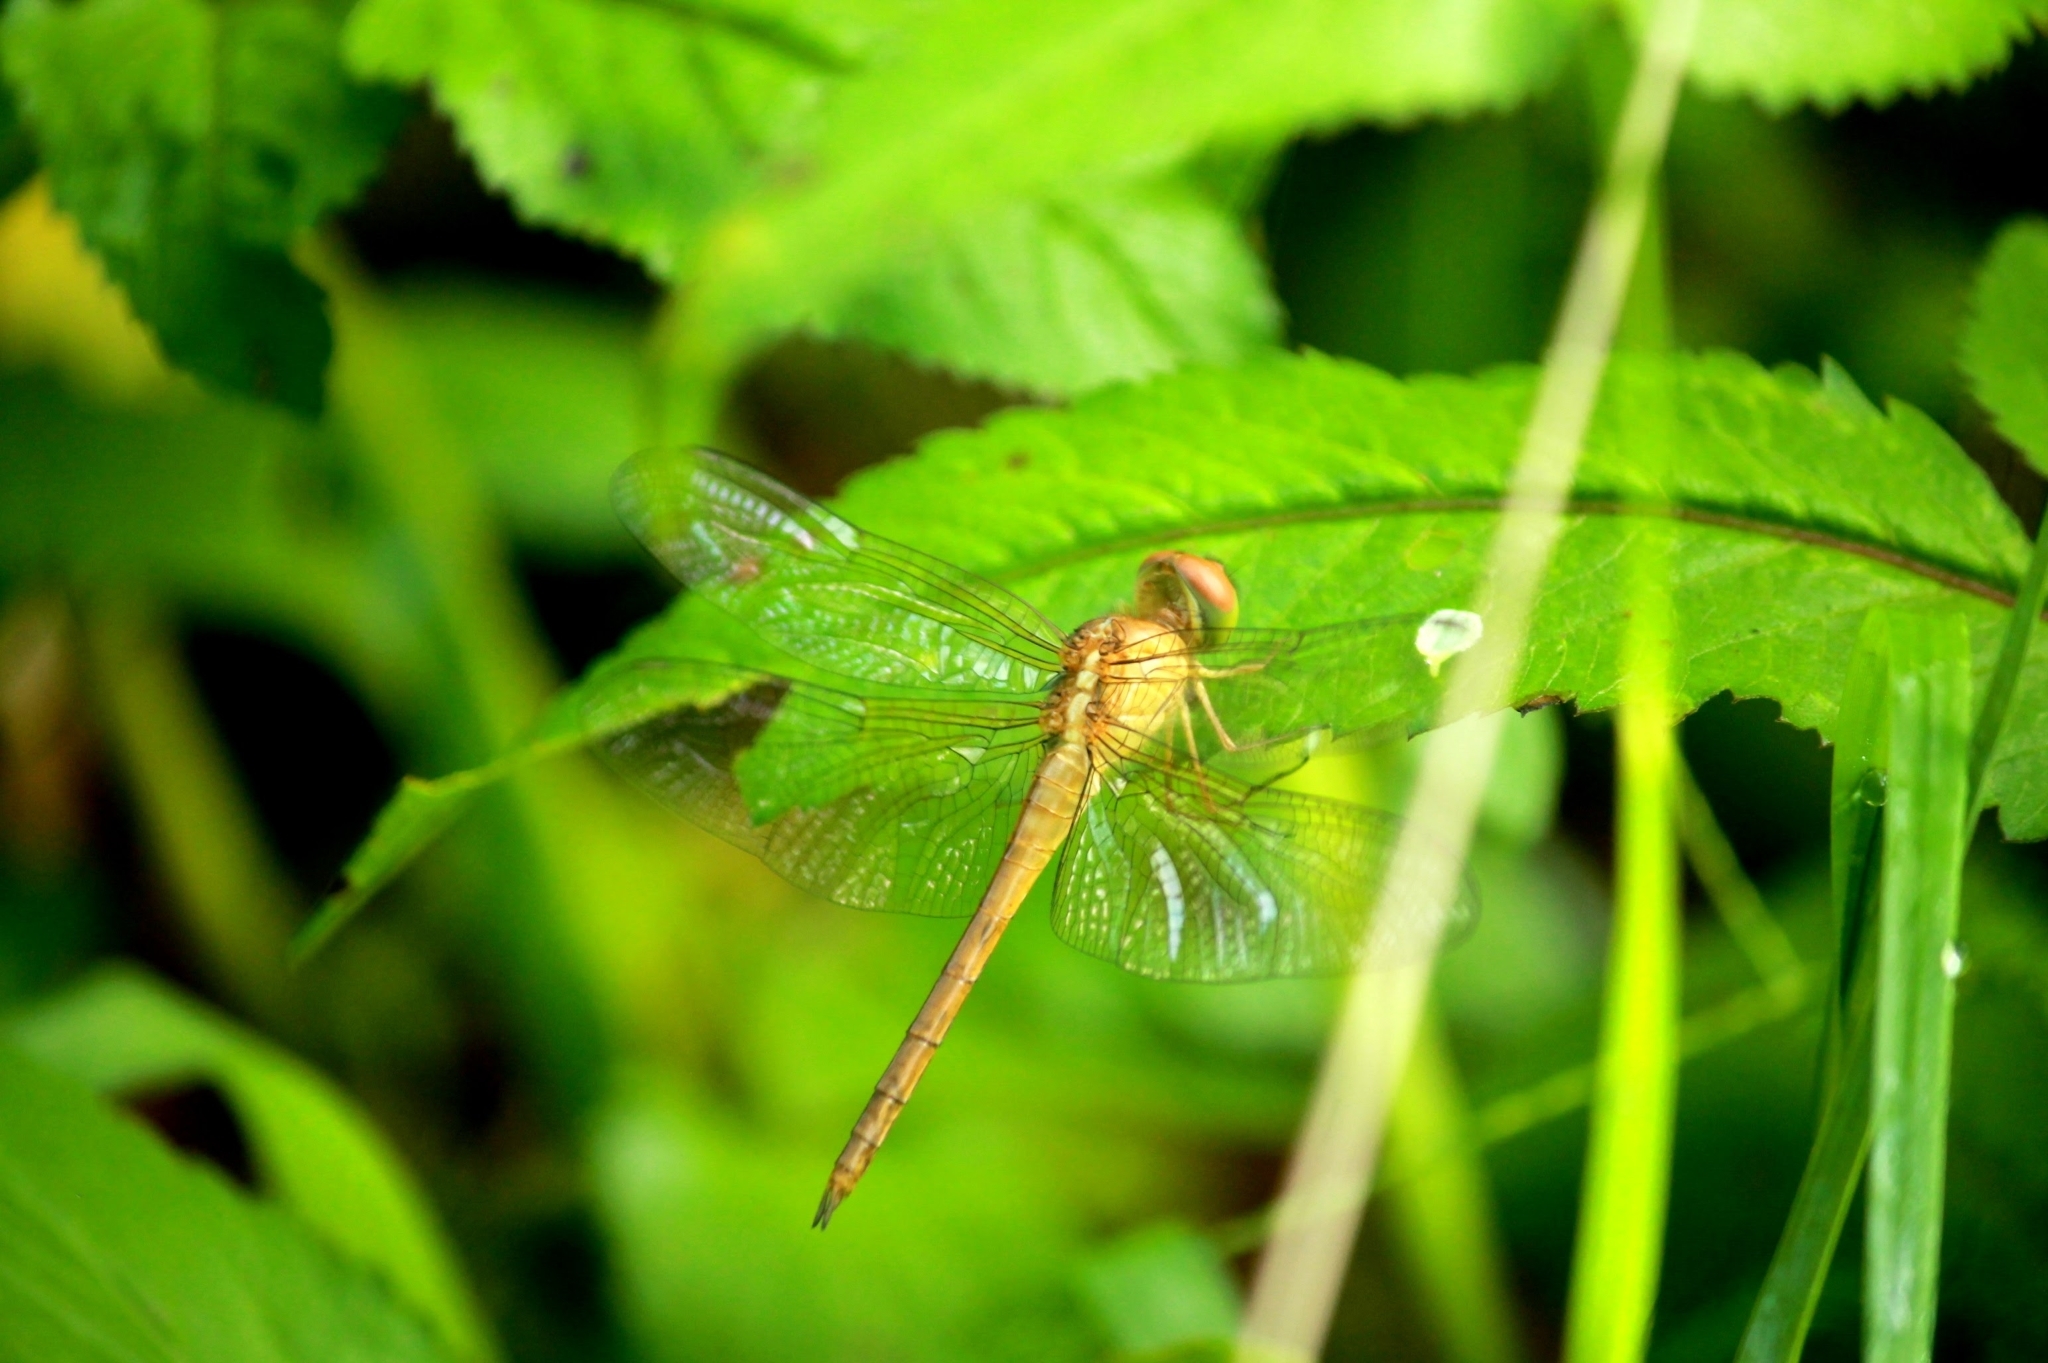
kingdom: Animalia
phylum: Arthropoda
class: Insecta
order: Odonata
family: Libellulidae
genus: Tholymis
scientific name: Tholymis tillarga
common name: Coral-tailed cloud wing
